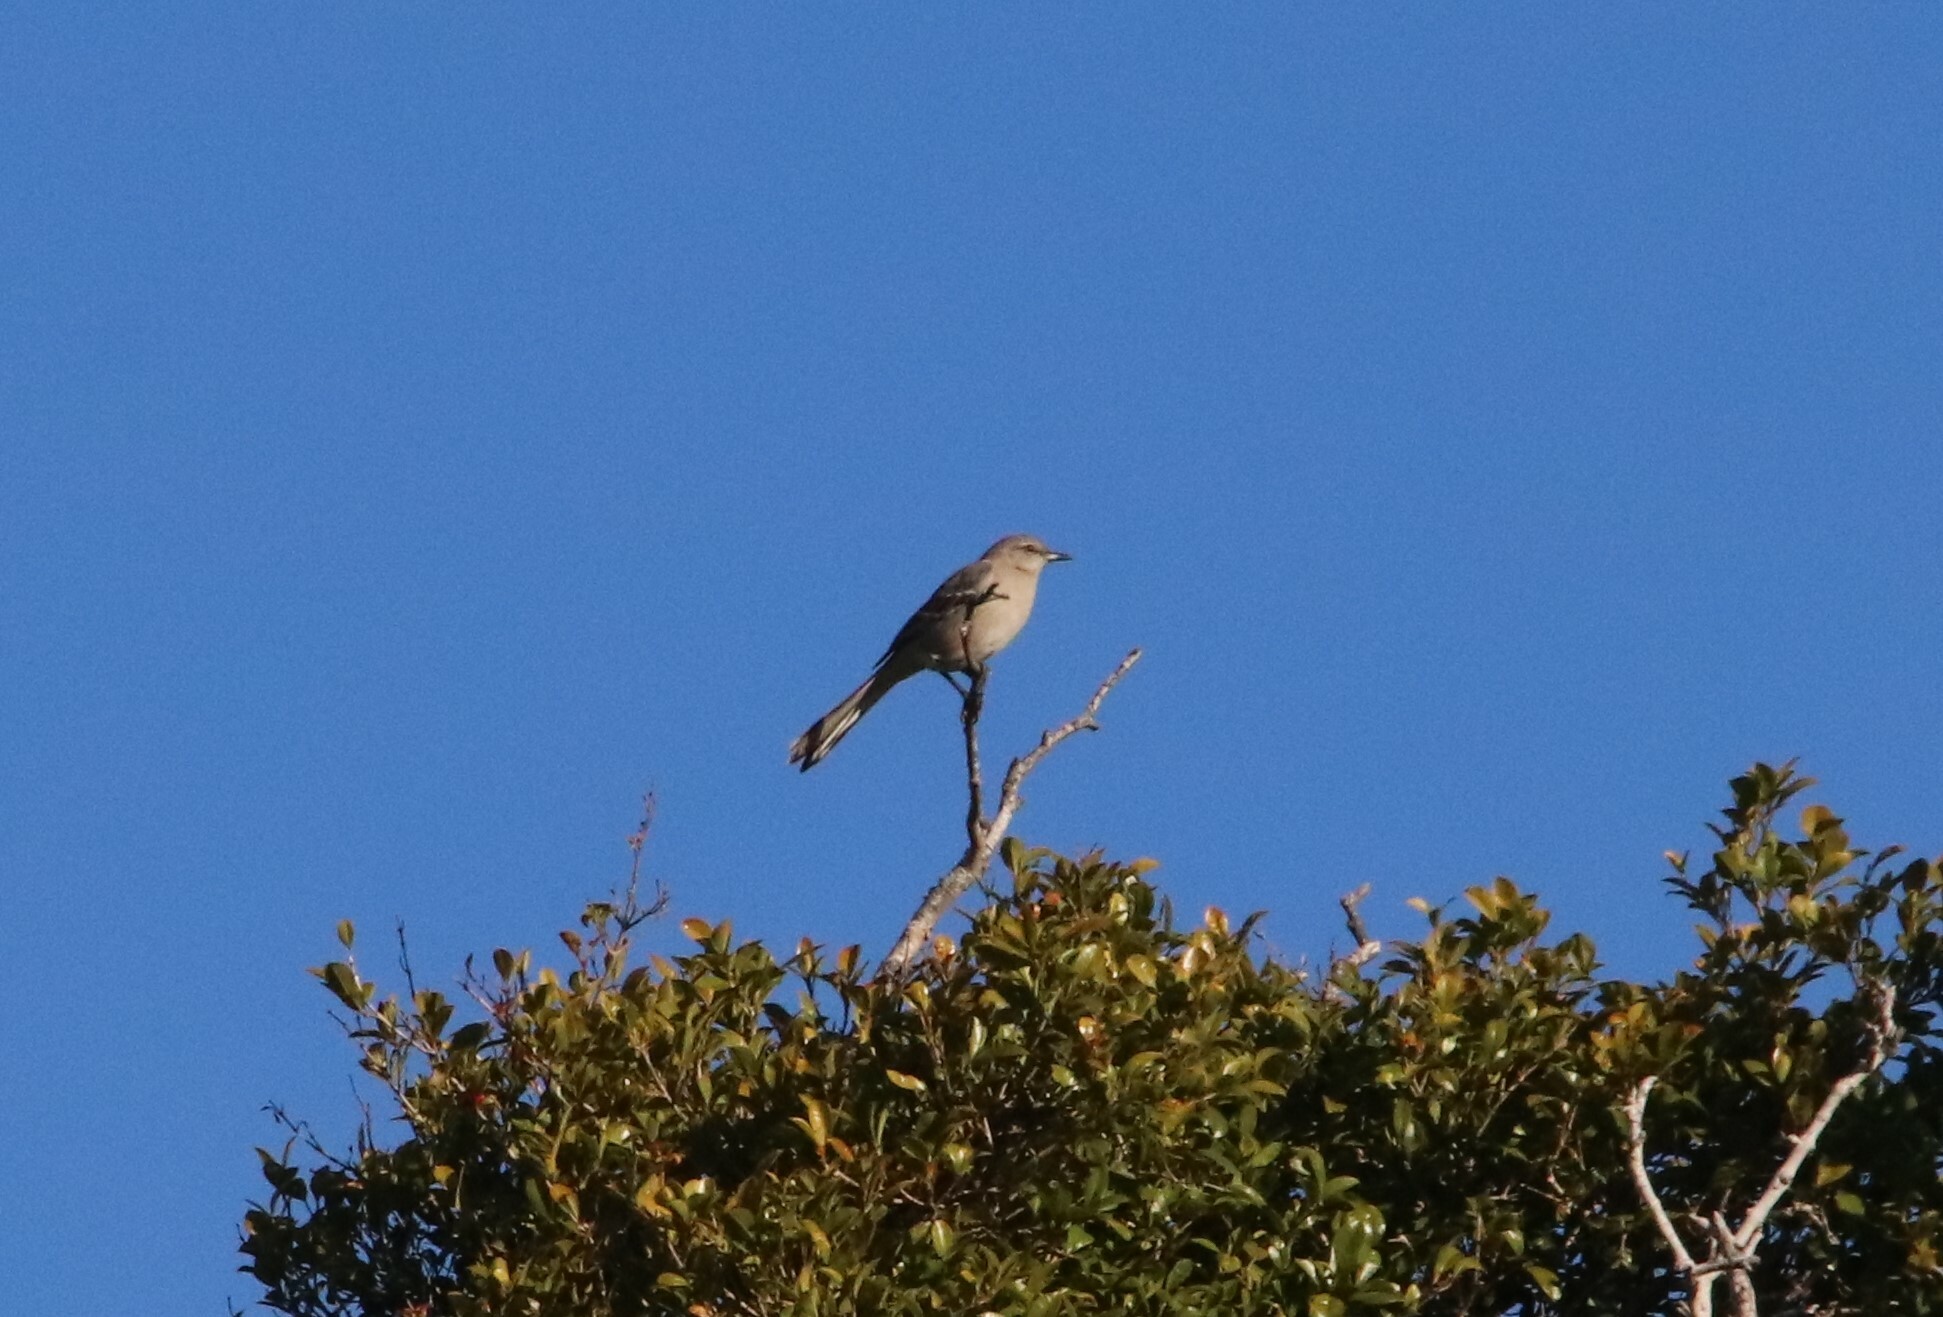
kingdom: Animalia
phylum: Chordata
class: Aves
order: Passeriformes
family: Mimidae
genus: Mimus
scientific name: Mimus polyglottos
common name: Northern mockingbird
